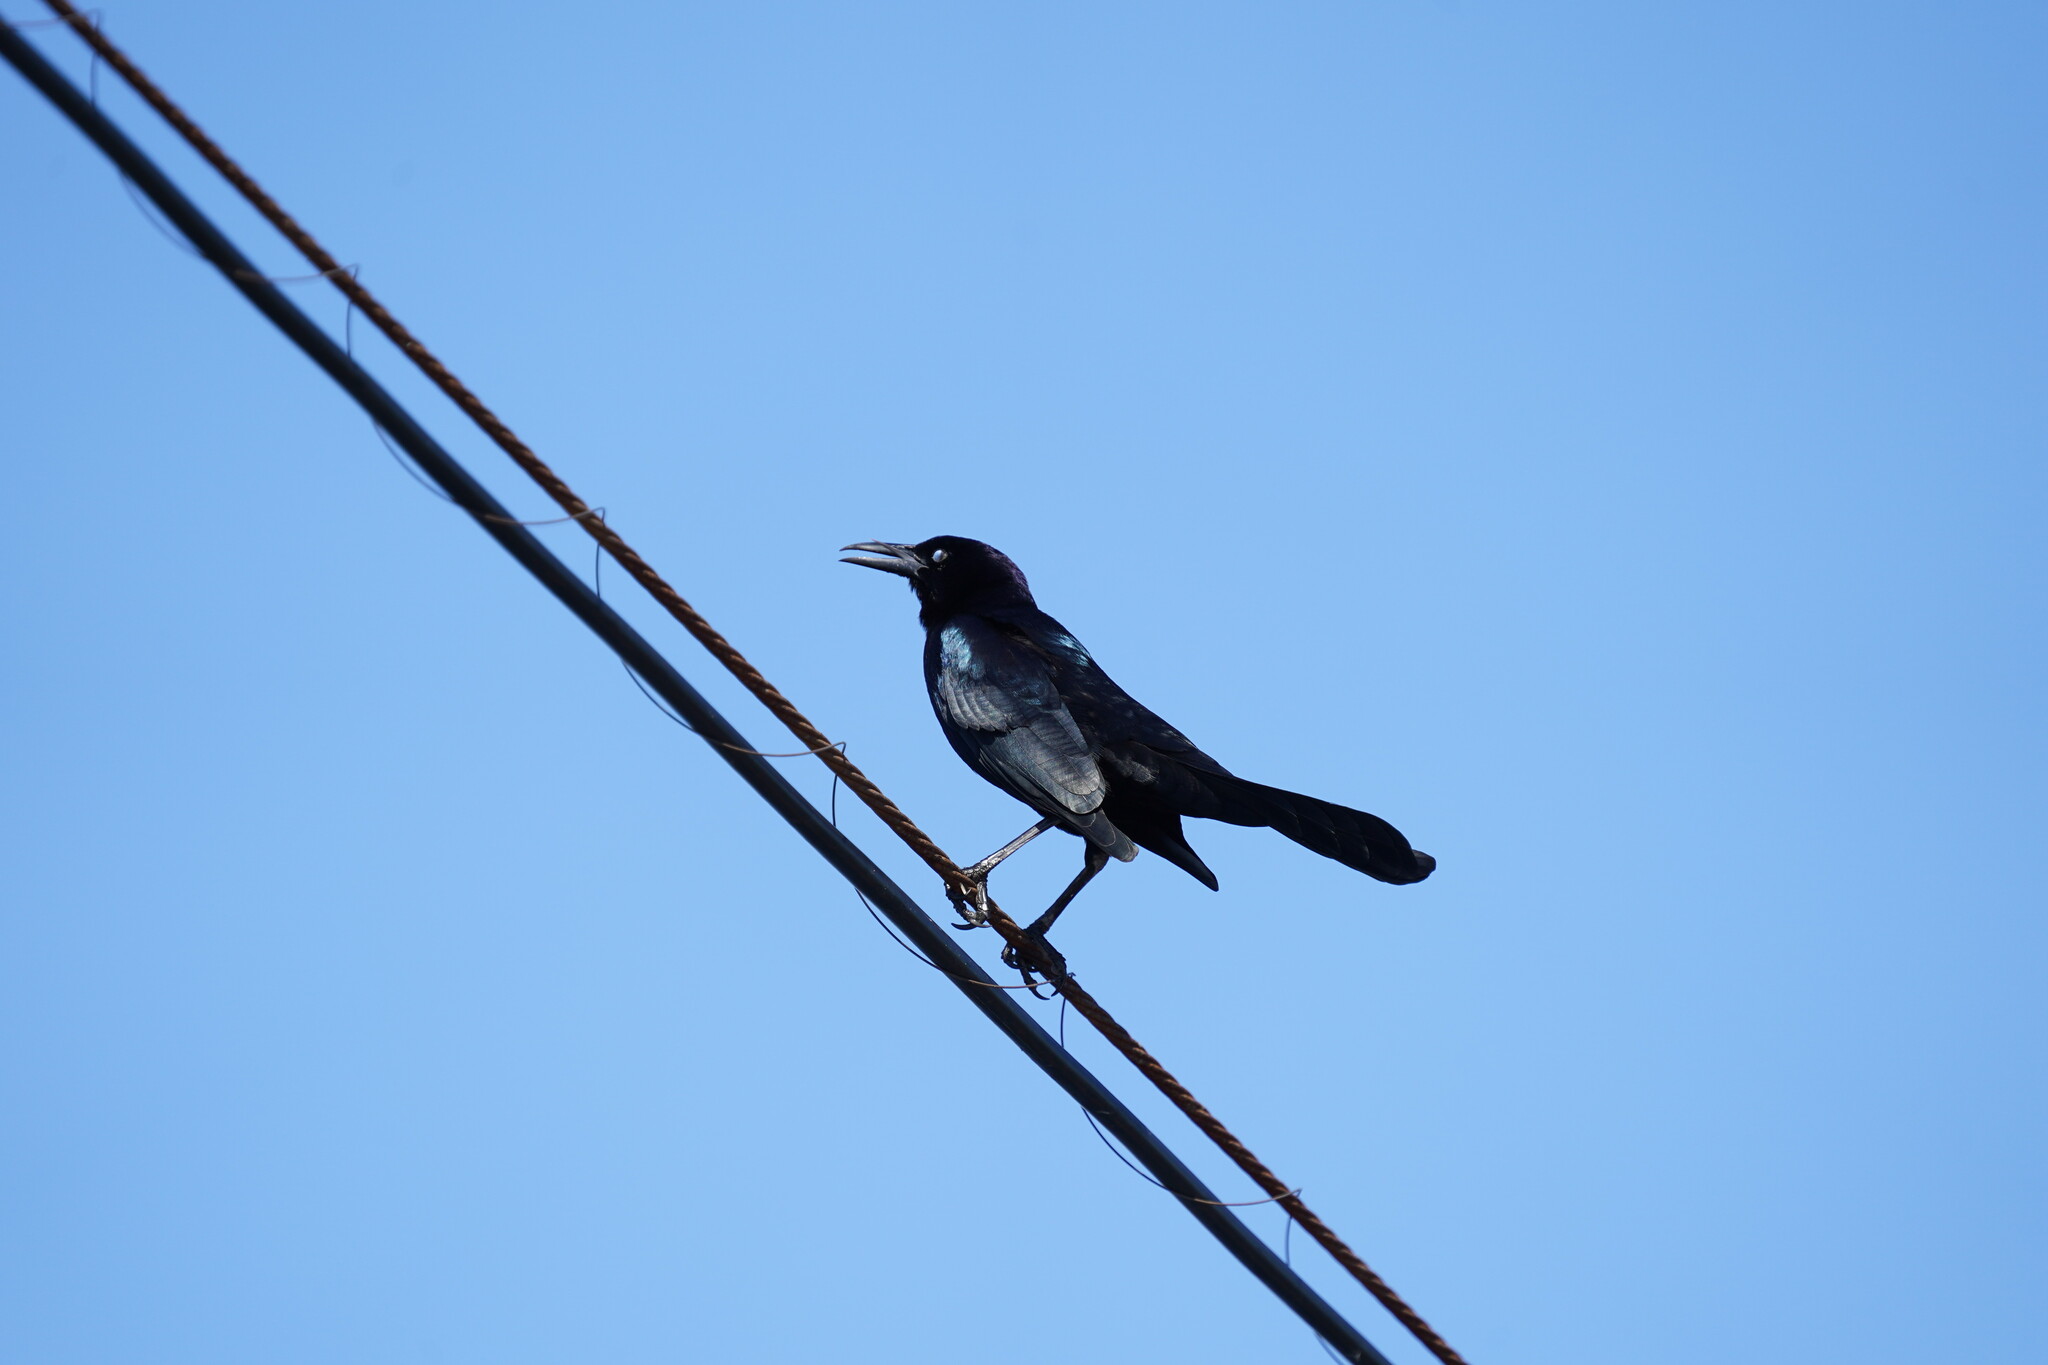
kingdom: Animalia
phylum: Chordata
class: Aves
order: Passeriformes
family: Icteridae
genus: Quiscalus
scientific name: Quiscalus major
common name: Boat-tailed grackle
